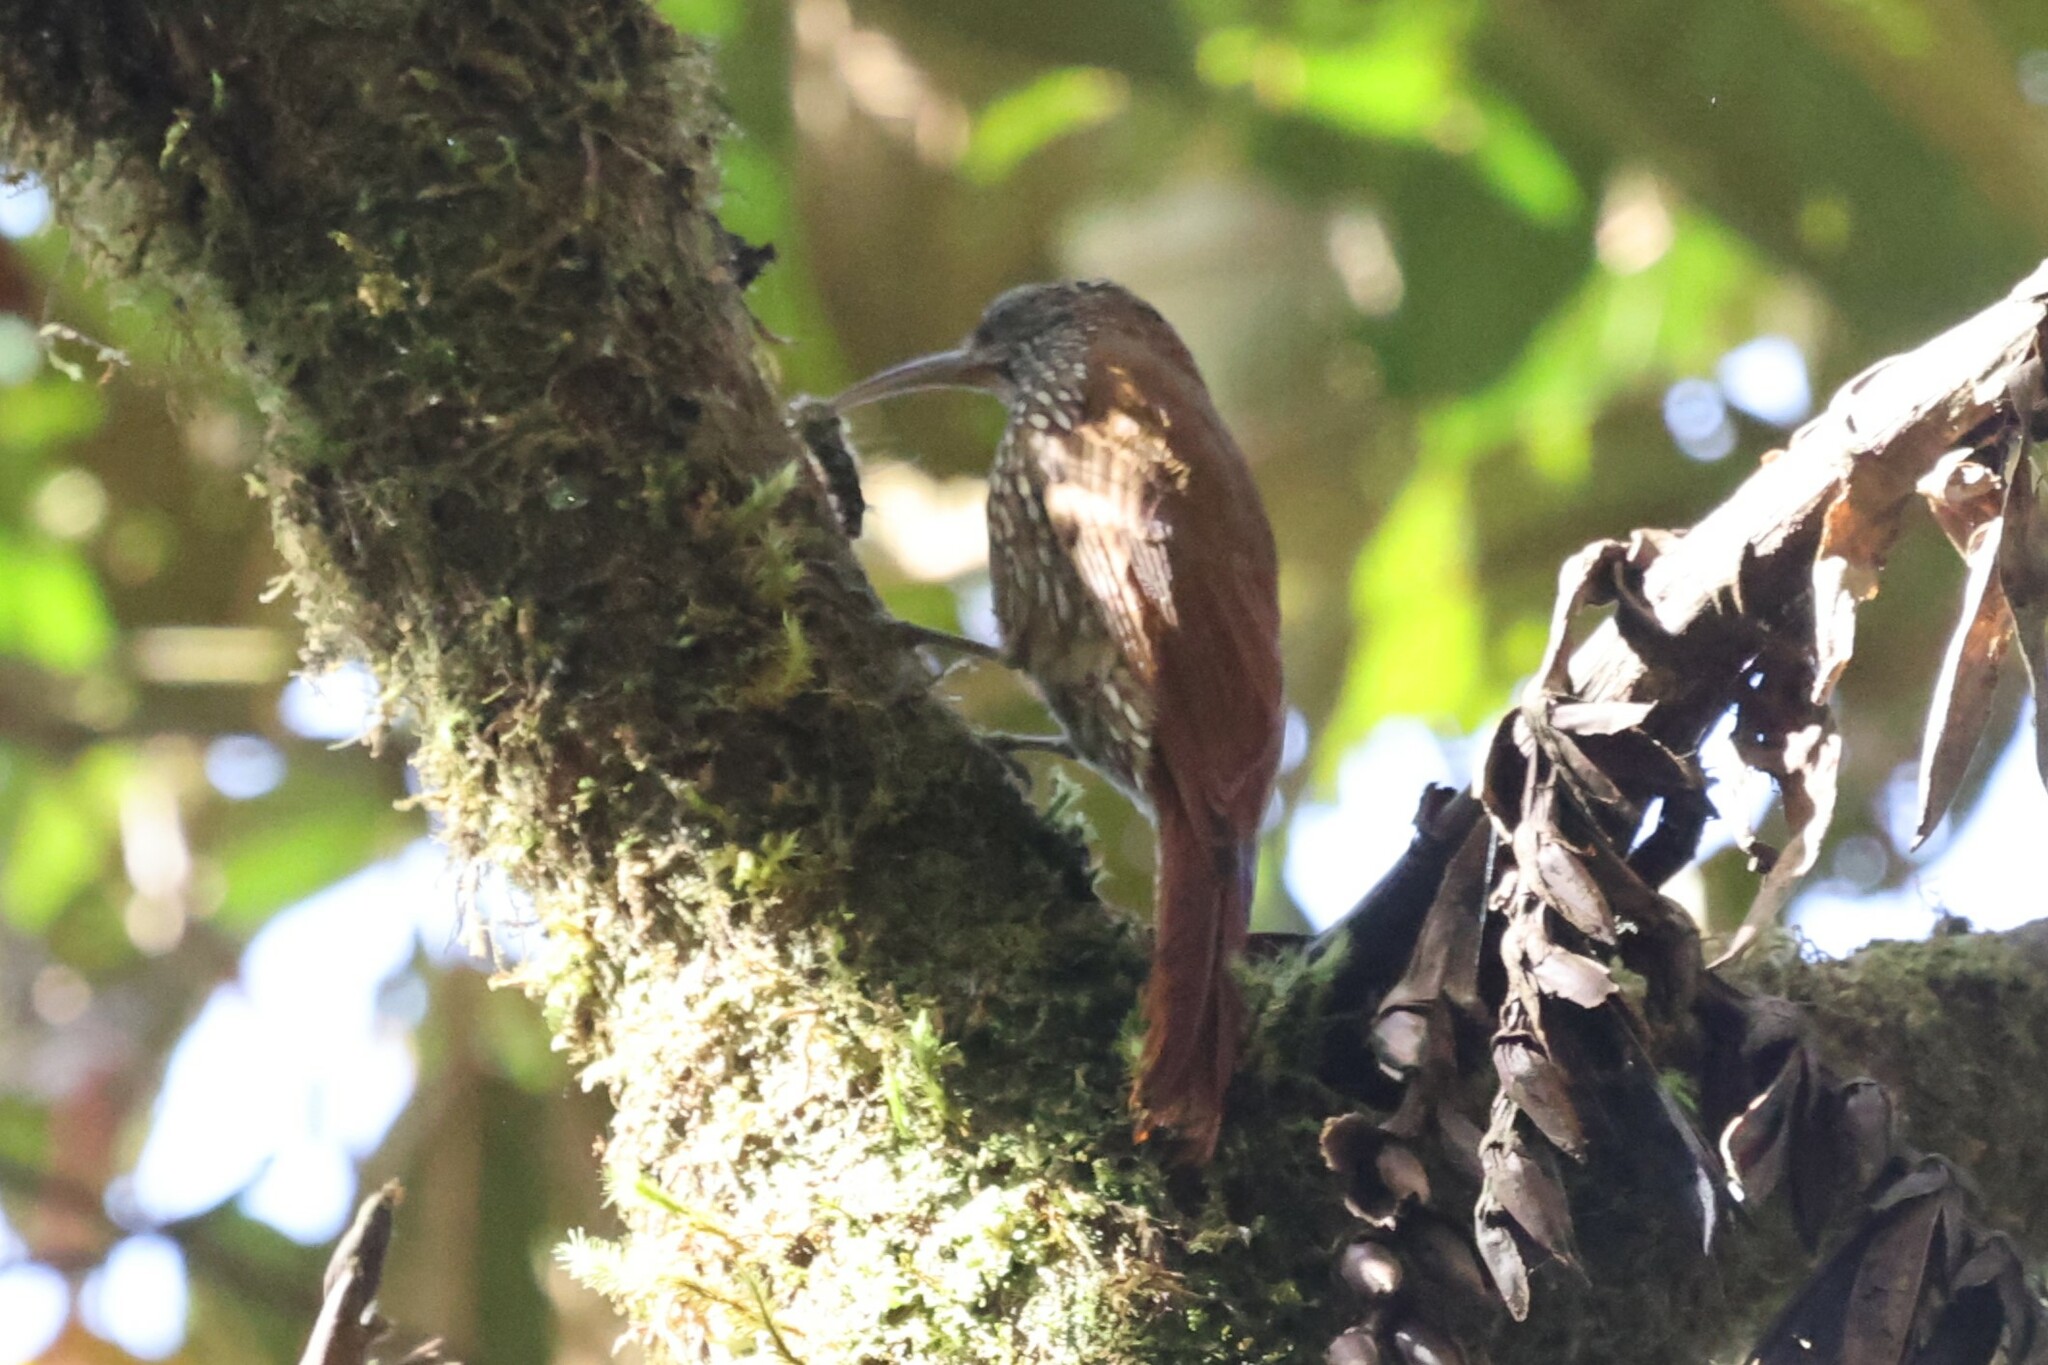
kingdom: Animalia
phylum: Chordata
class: Aves
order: Passeriformes
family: Furnariidae
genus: Lepidocolaptes
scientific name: Lepidocolaptes lacrymiger
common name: Montane woodcreeper
